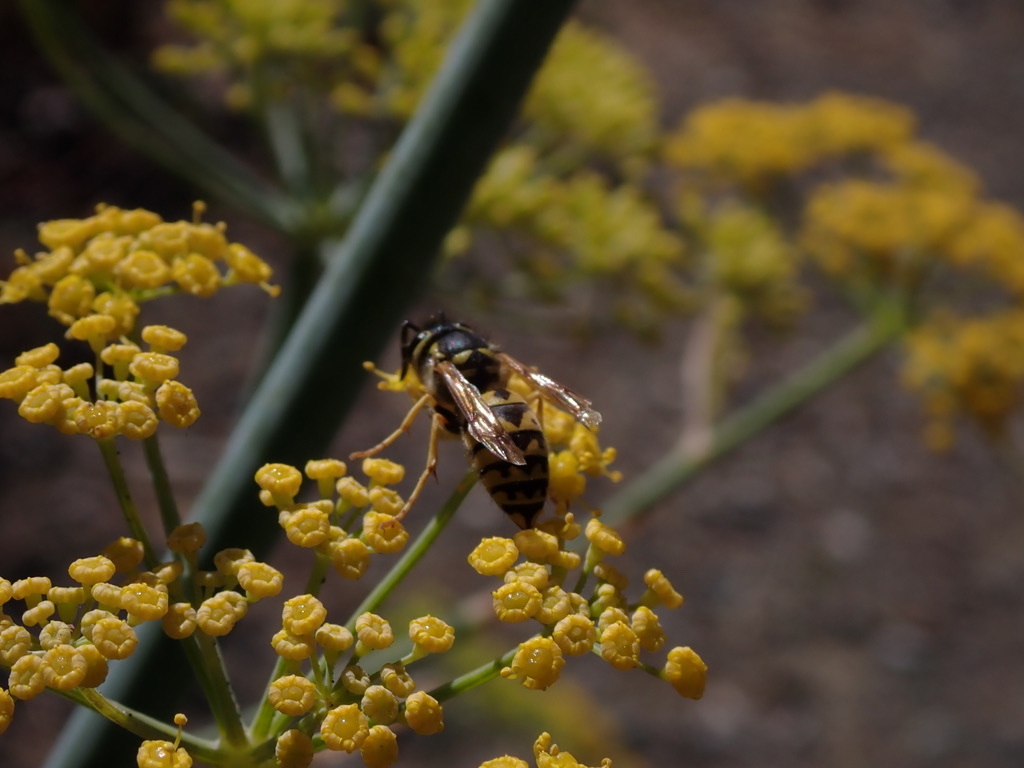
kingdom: Animalia
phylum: Arthropoda
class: Insecta
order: Hymenoptera
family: Vespidae
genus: Vespula
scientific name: Vespula pensylvanica
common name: Western yellowjacket
